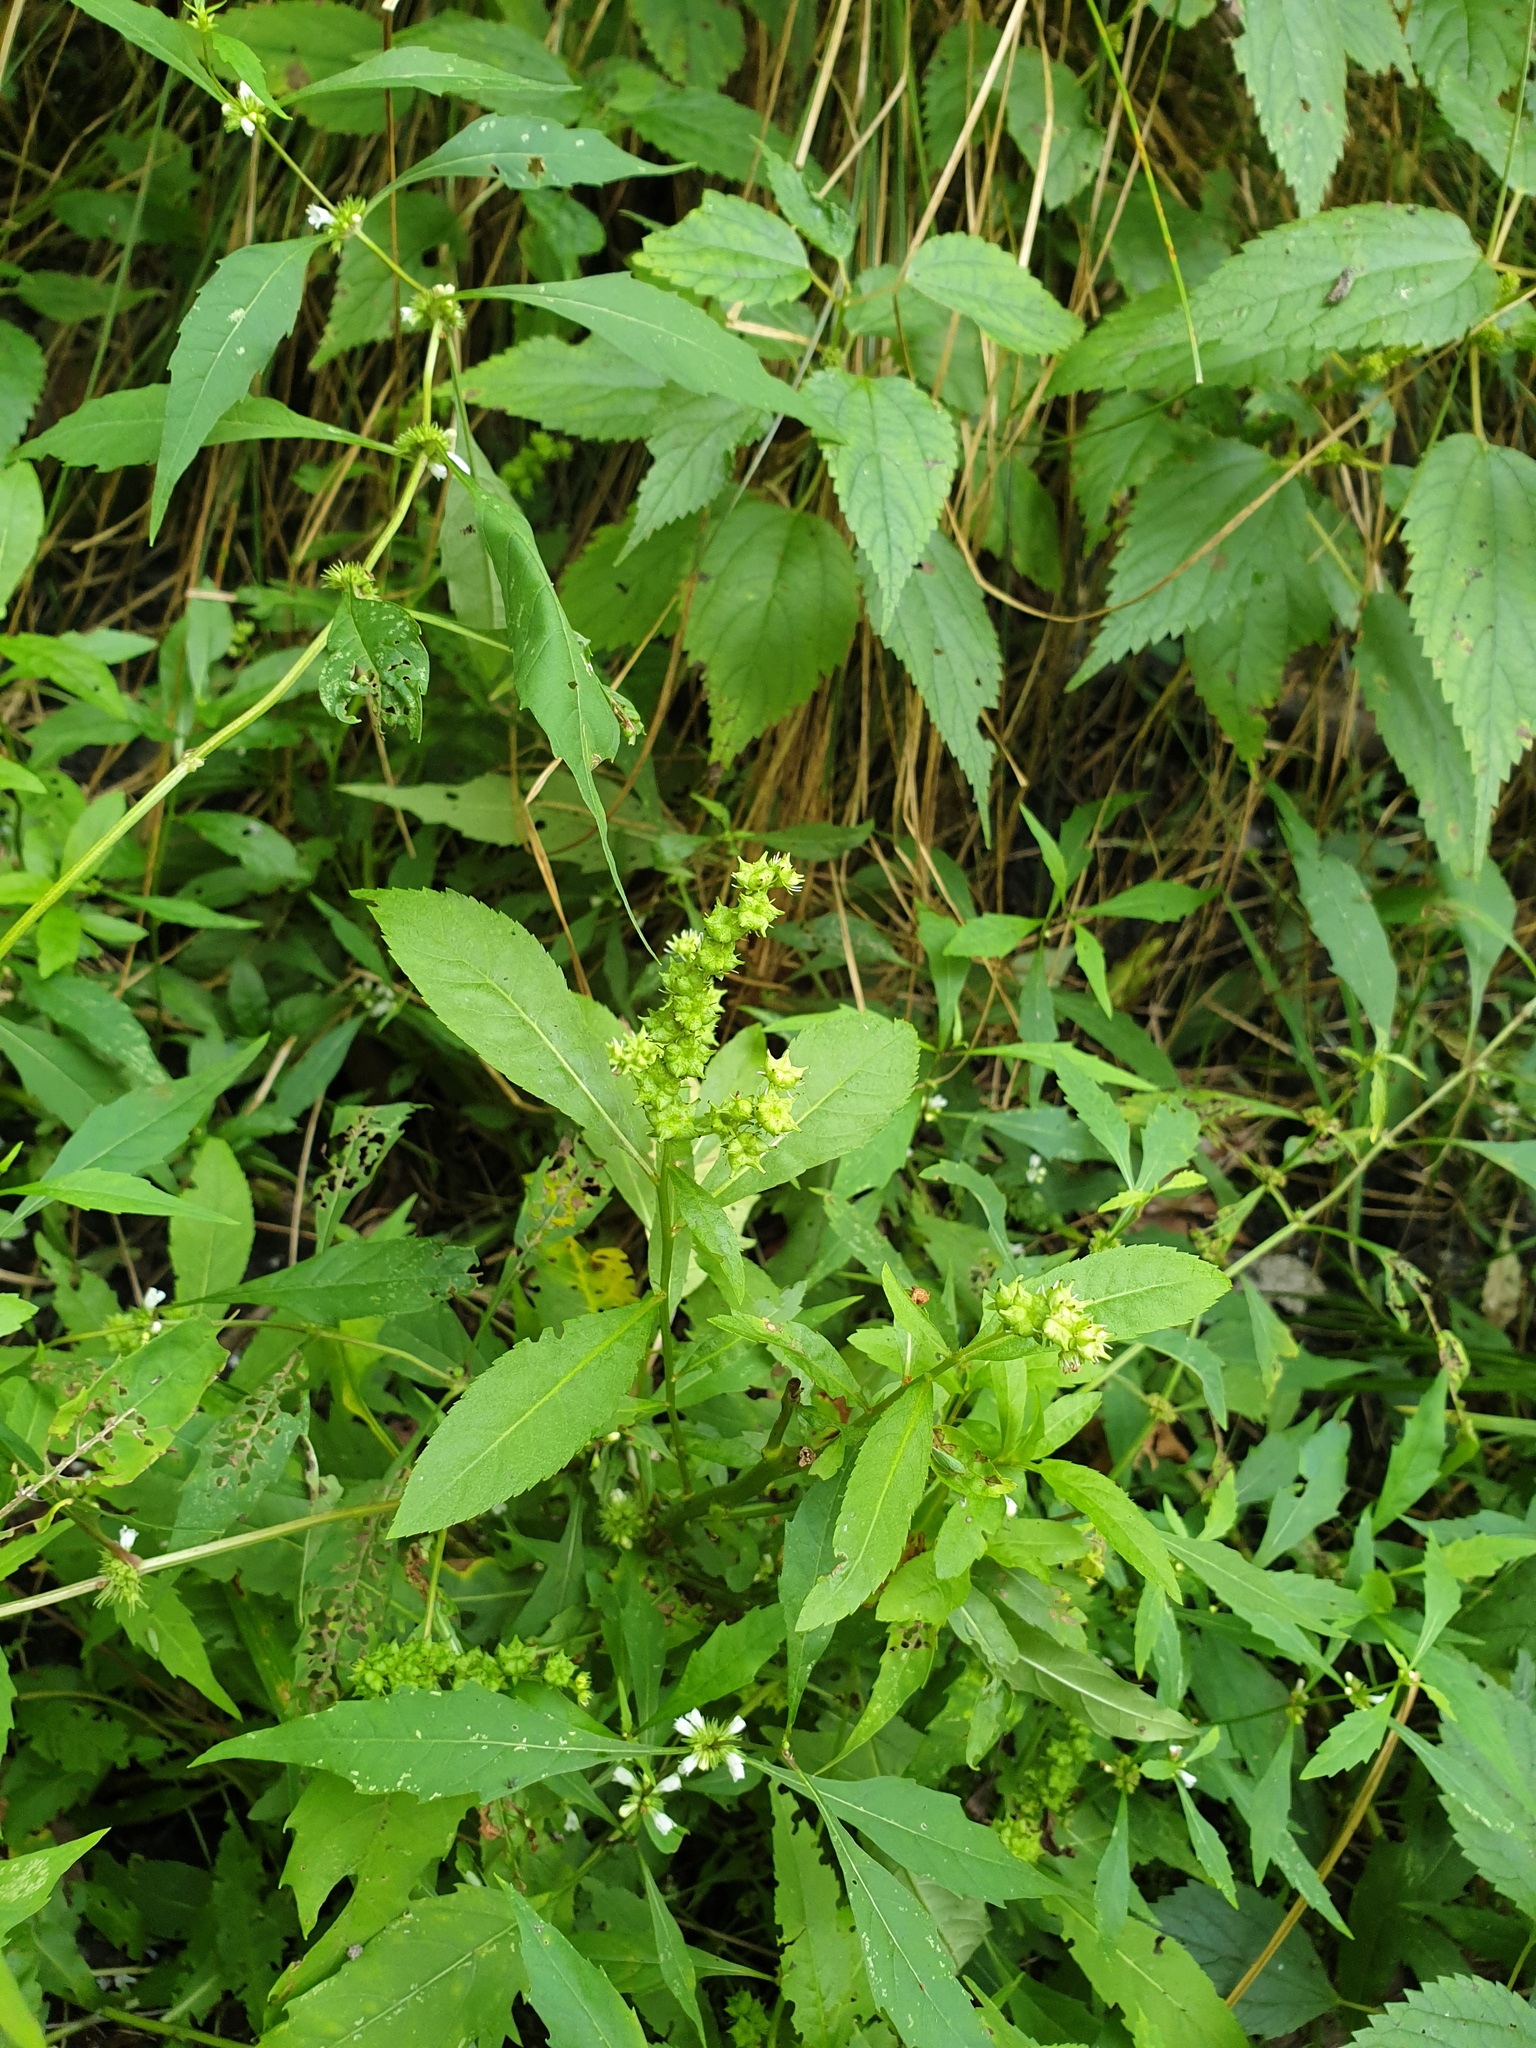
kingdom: Plantae
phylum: Tracheophyta
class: Magnoliopsida
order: Saxifragales
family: Penthoraceae
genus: Penthorum
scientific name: Penthorum sedoides
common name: Ditch stonecrop
